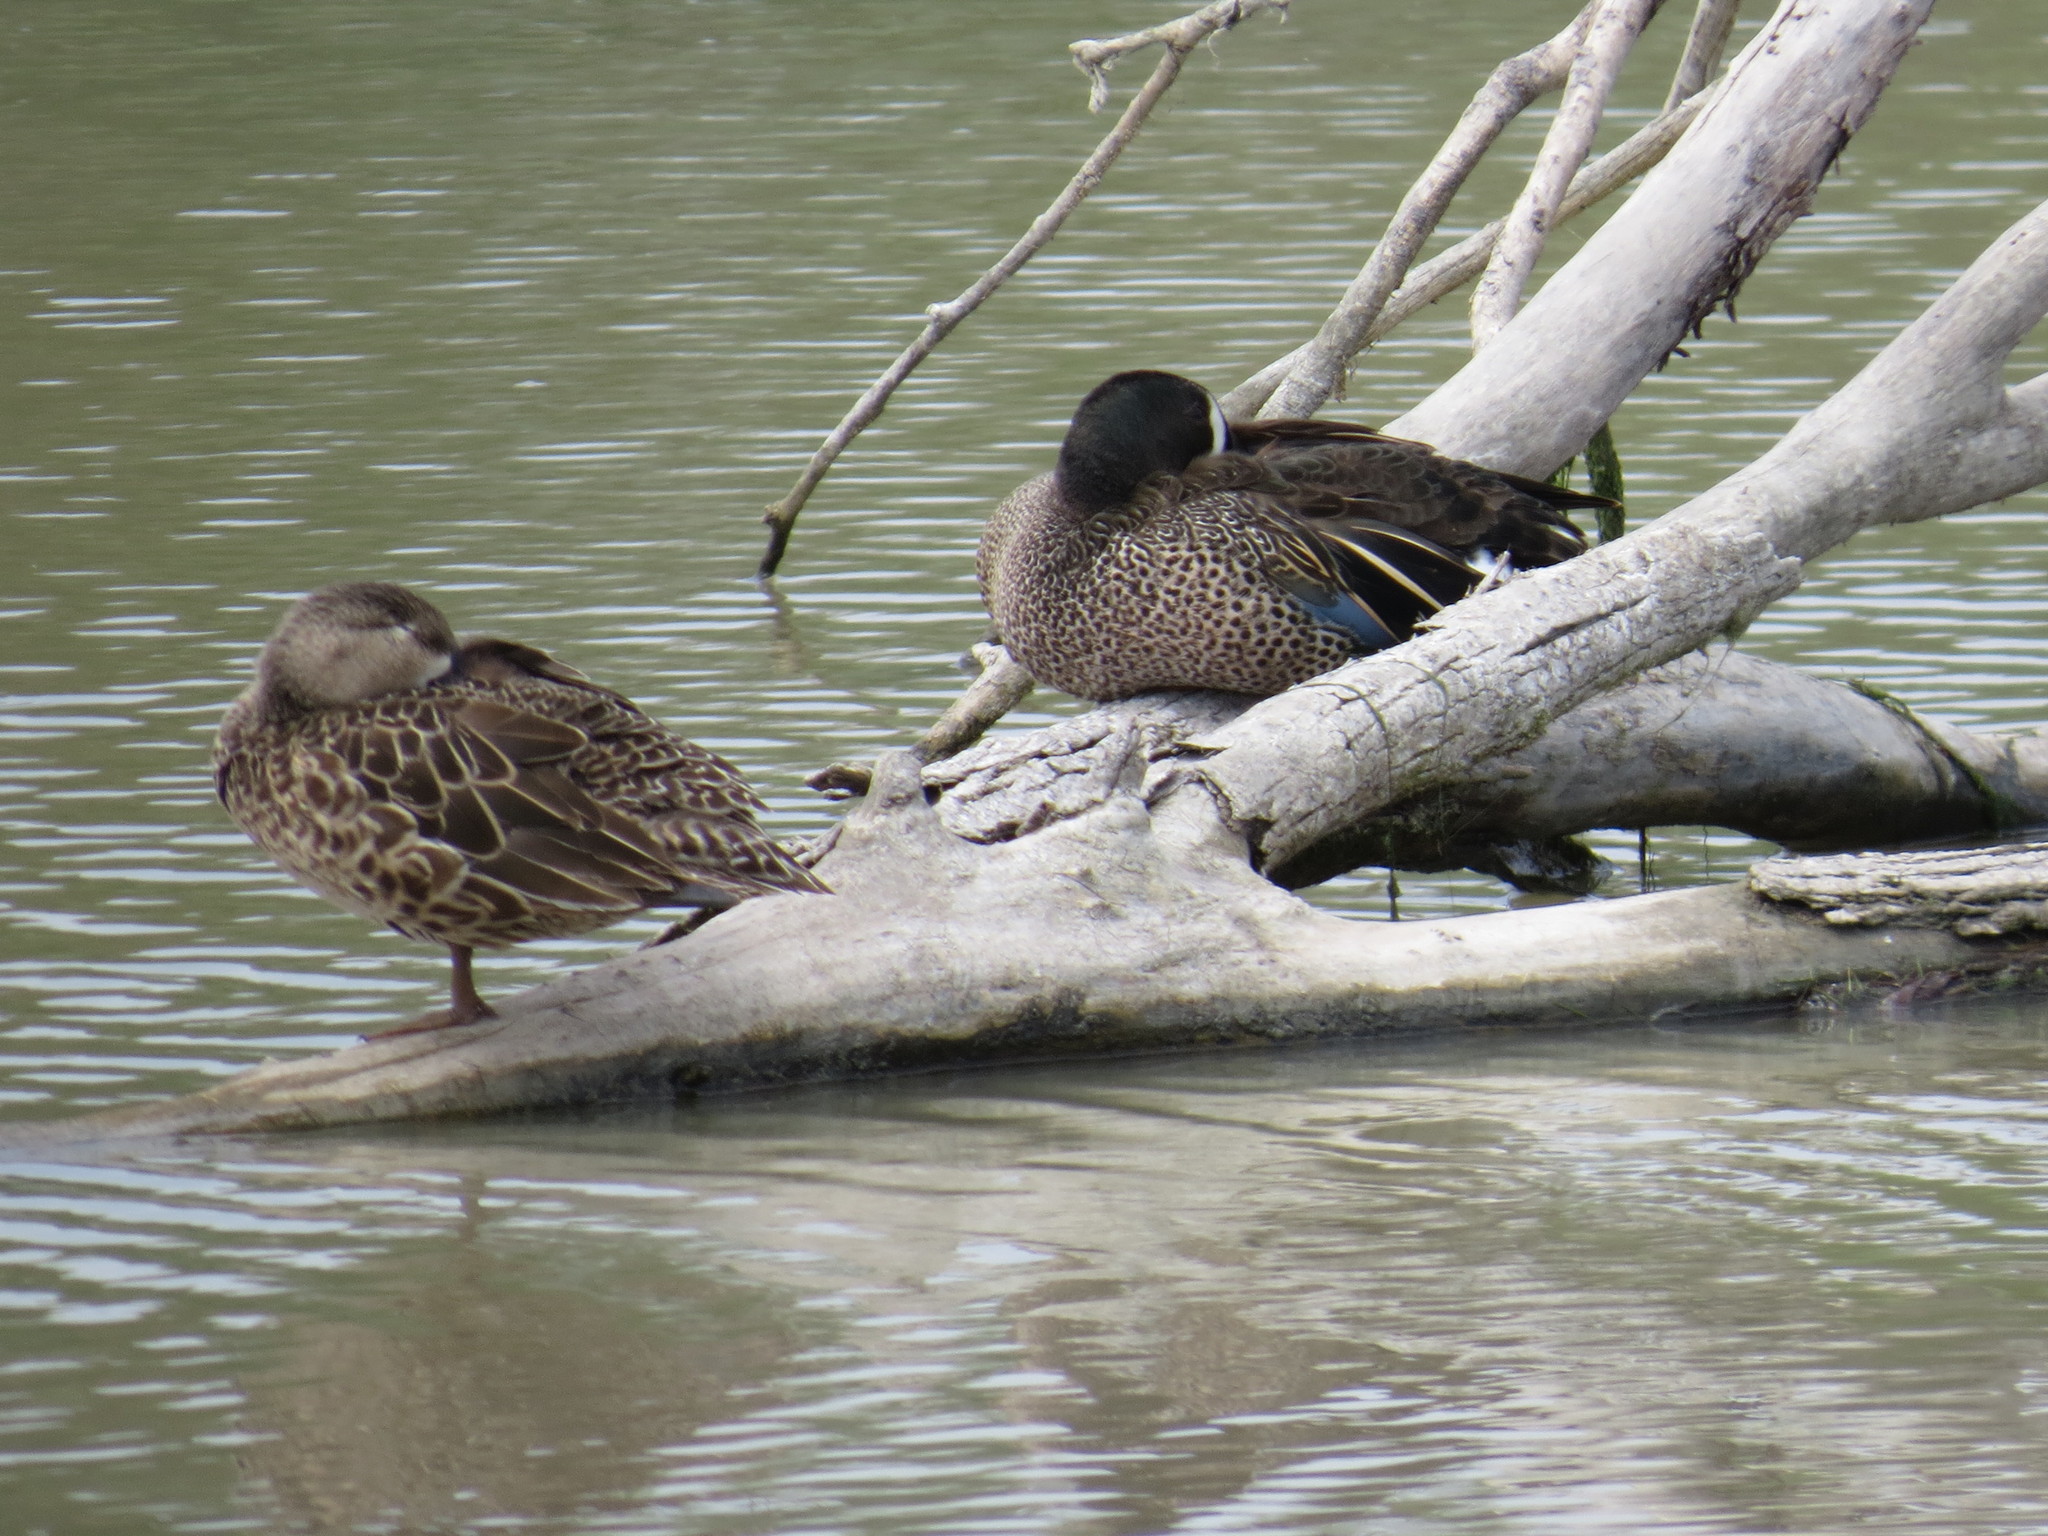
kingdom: Animalia
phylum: Chordata
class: Aves
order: Anseriformes
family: Anatidae
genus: Spatula
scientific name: Spatula discors
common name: Blue-winged teal
